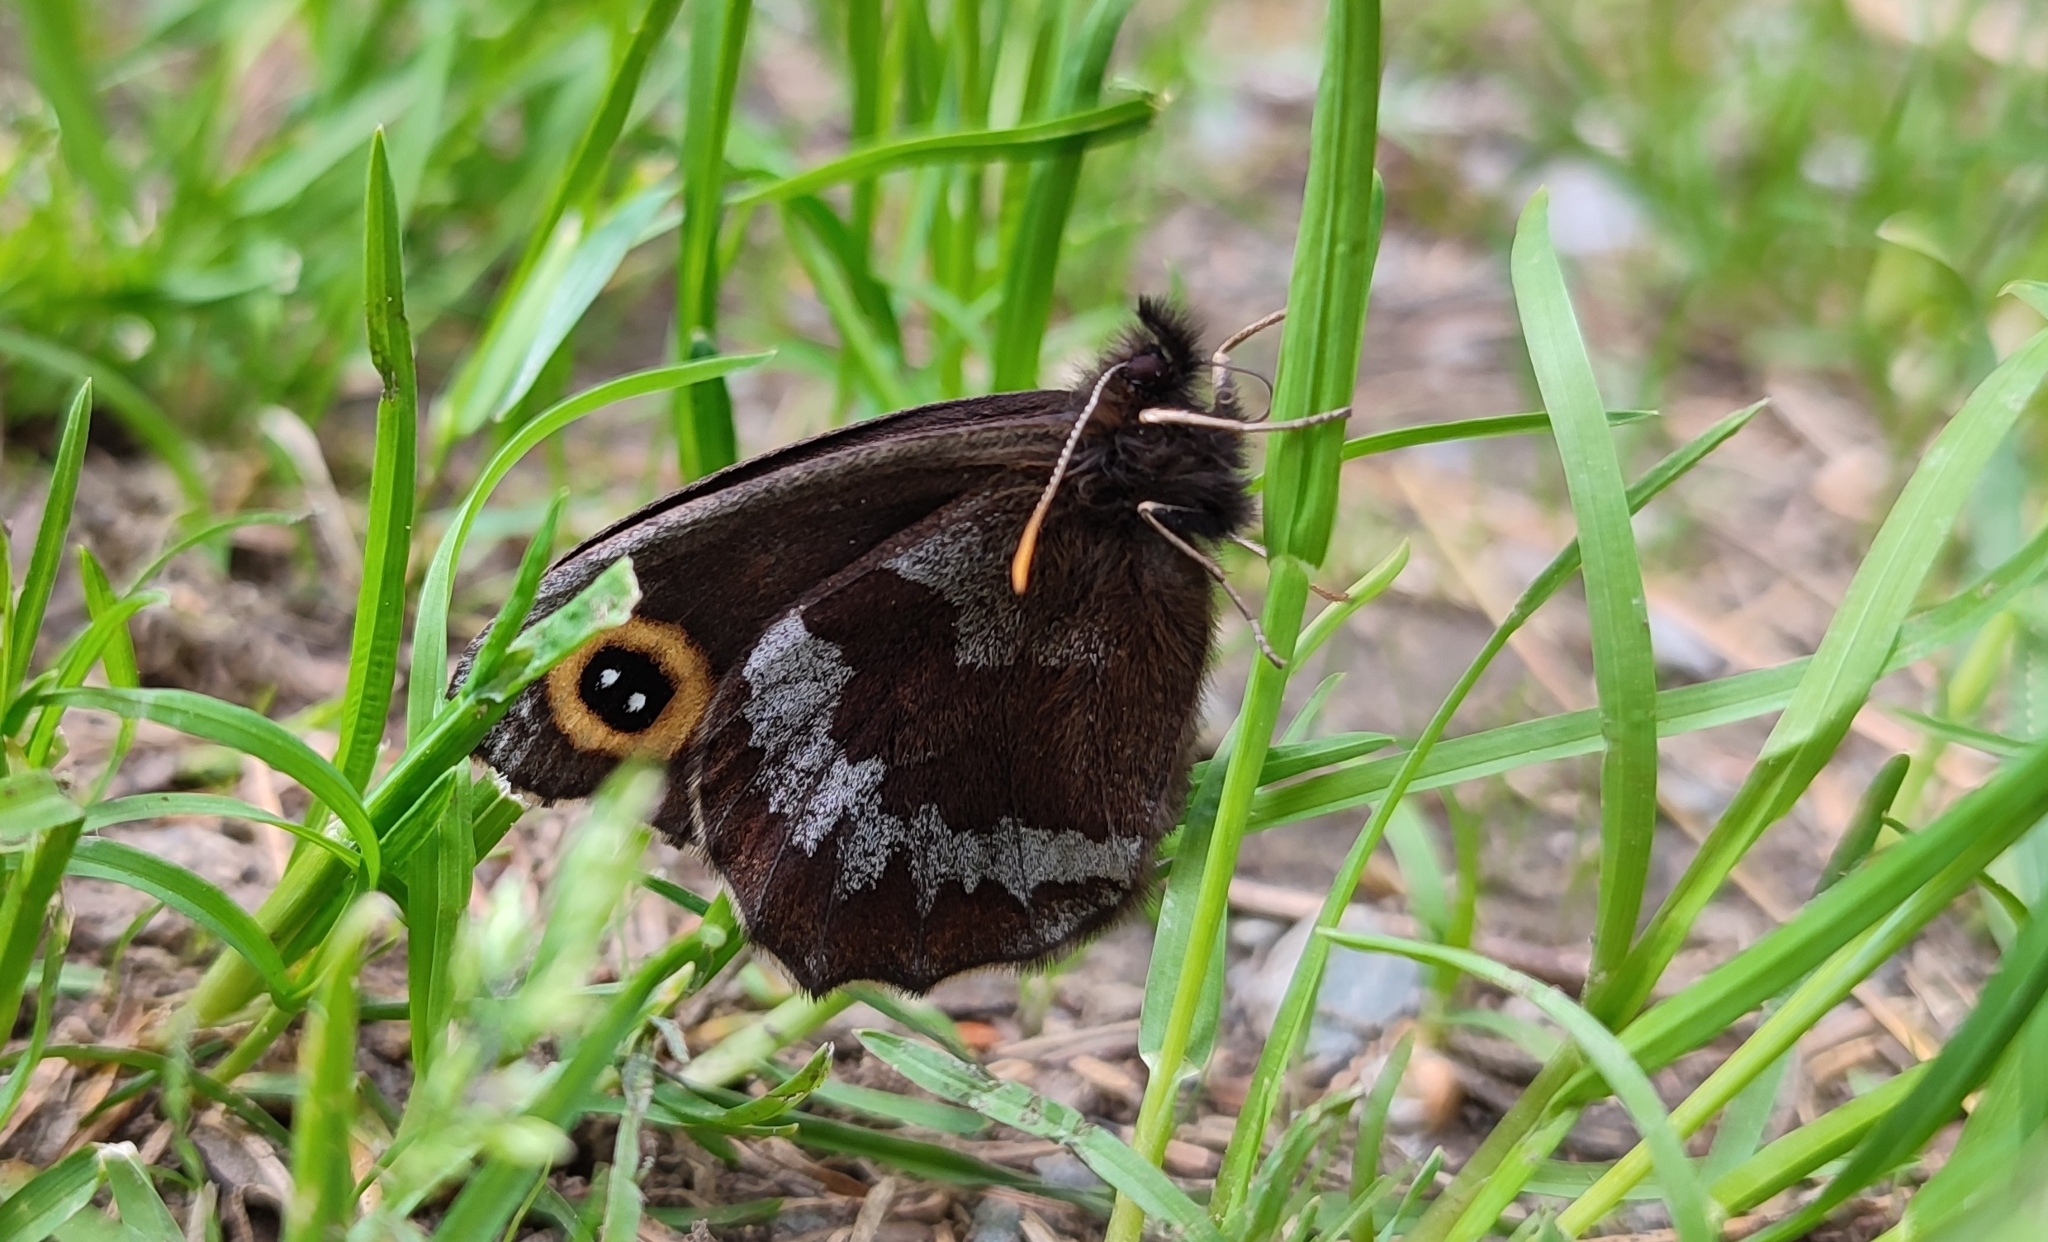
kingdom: Animalia
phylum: Arthropoda
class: Insecta
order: Lepidoptera
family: Nymphalidae
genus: Erebia
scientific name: Erebia cyclopius
